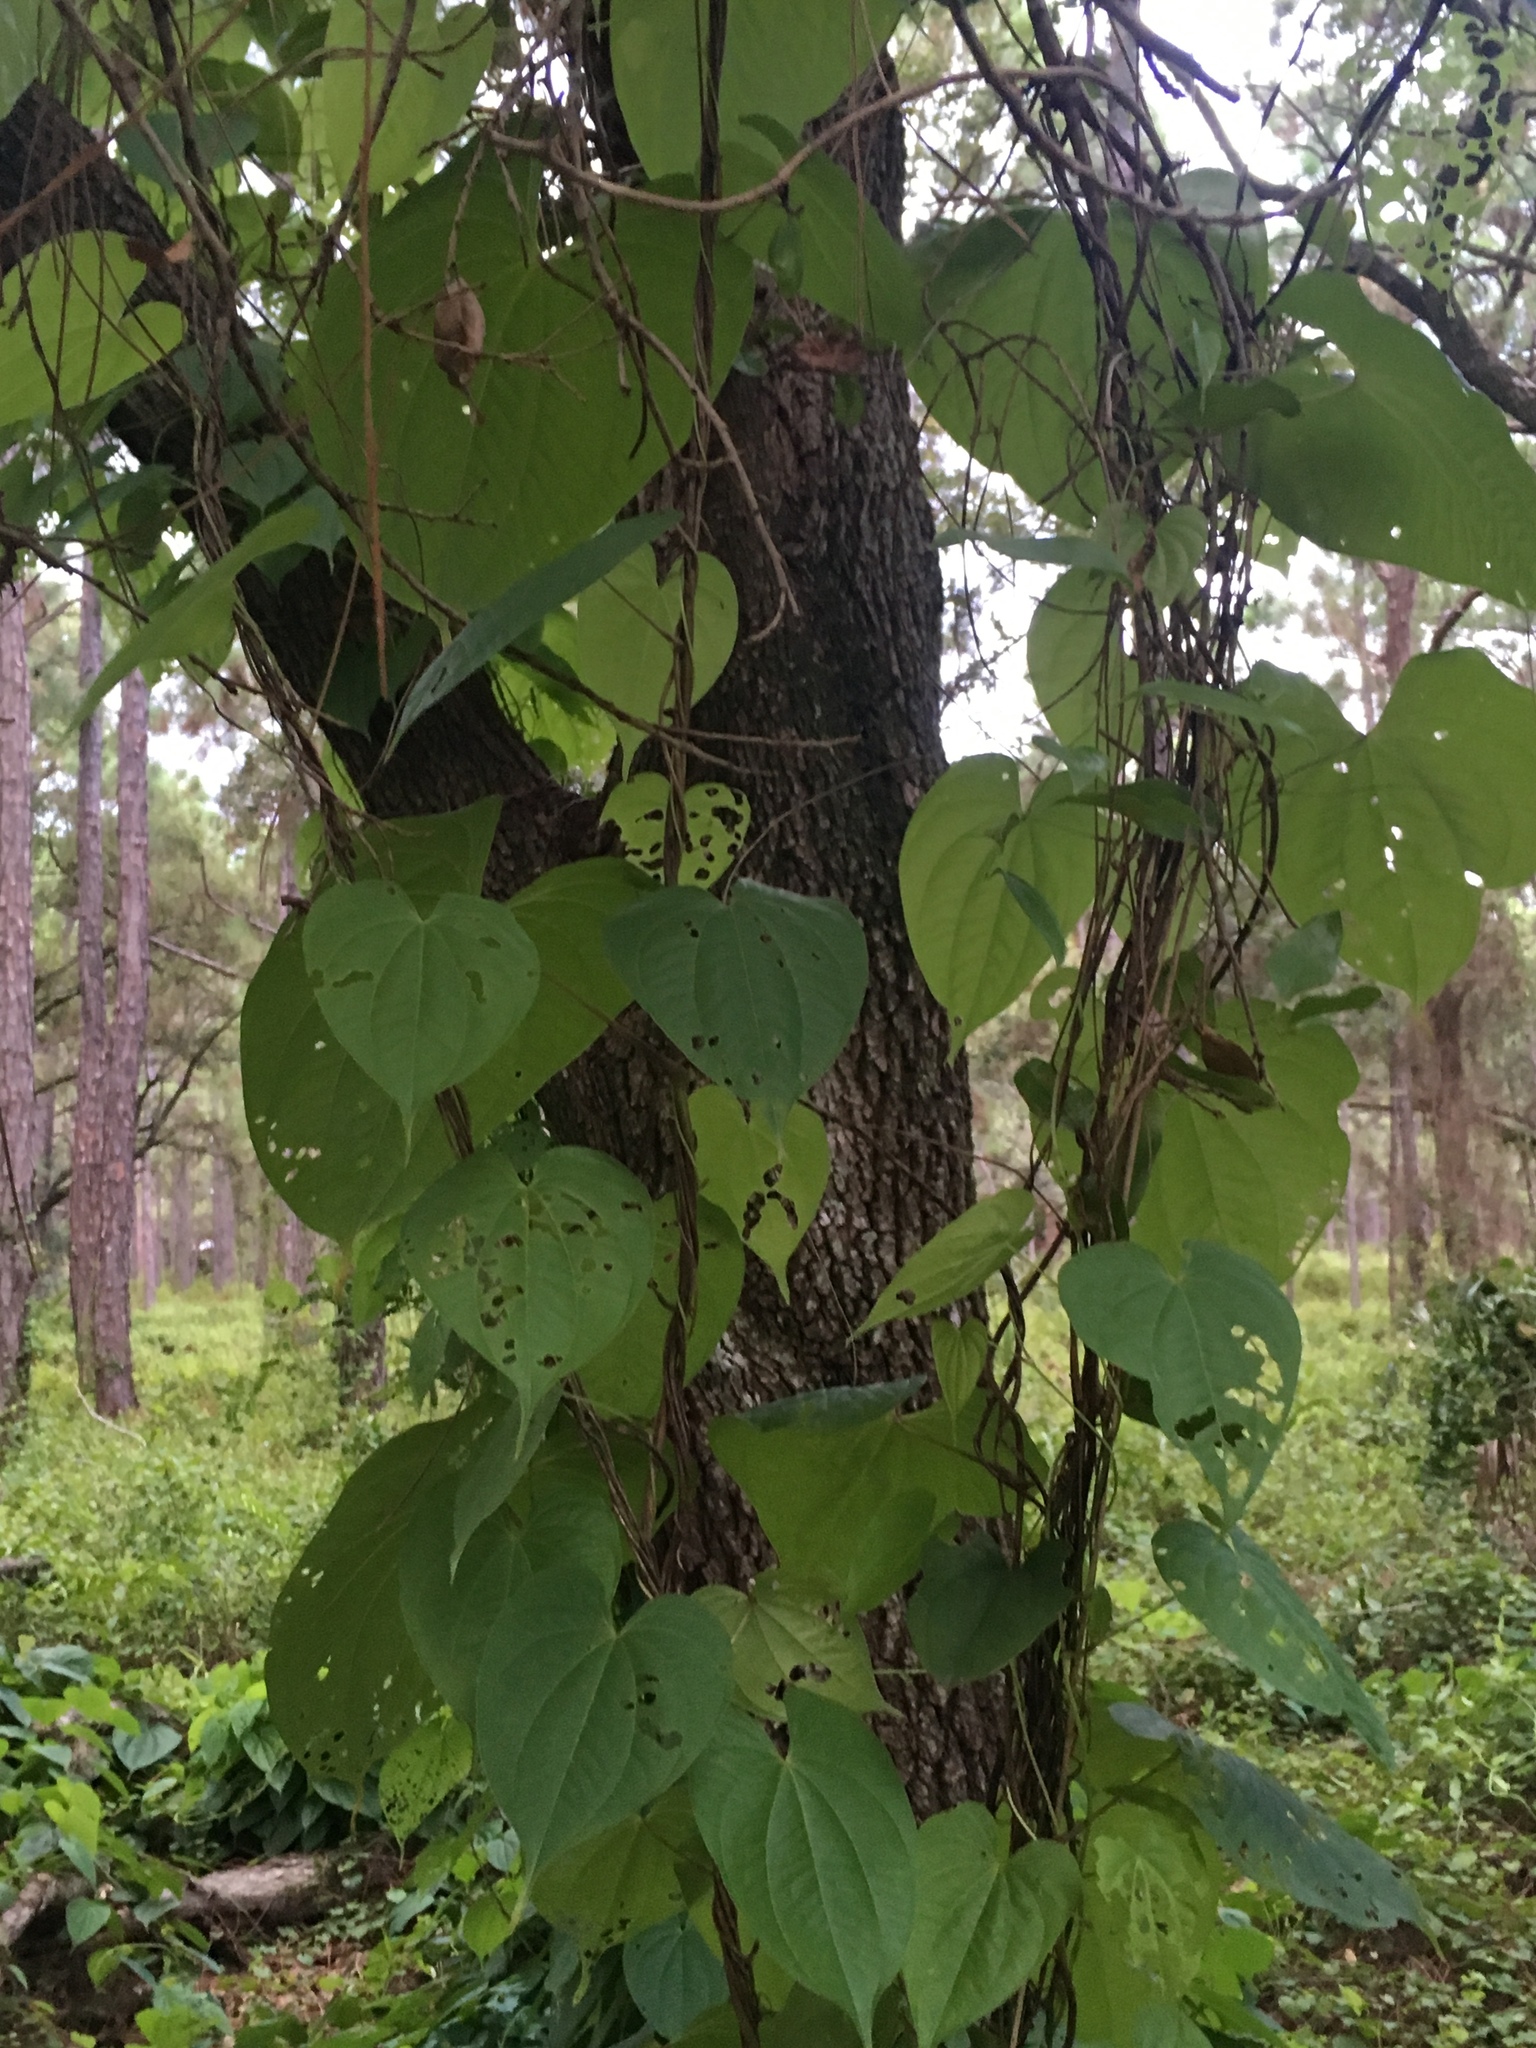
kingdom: Plantae
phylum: Tracheophyta
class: Liliopsida
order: Dioscoreales
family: Dioscoreaceae
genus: Dioscorea
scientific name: Dioscorea bulbifera
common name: Air yam
